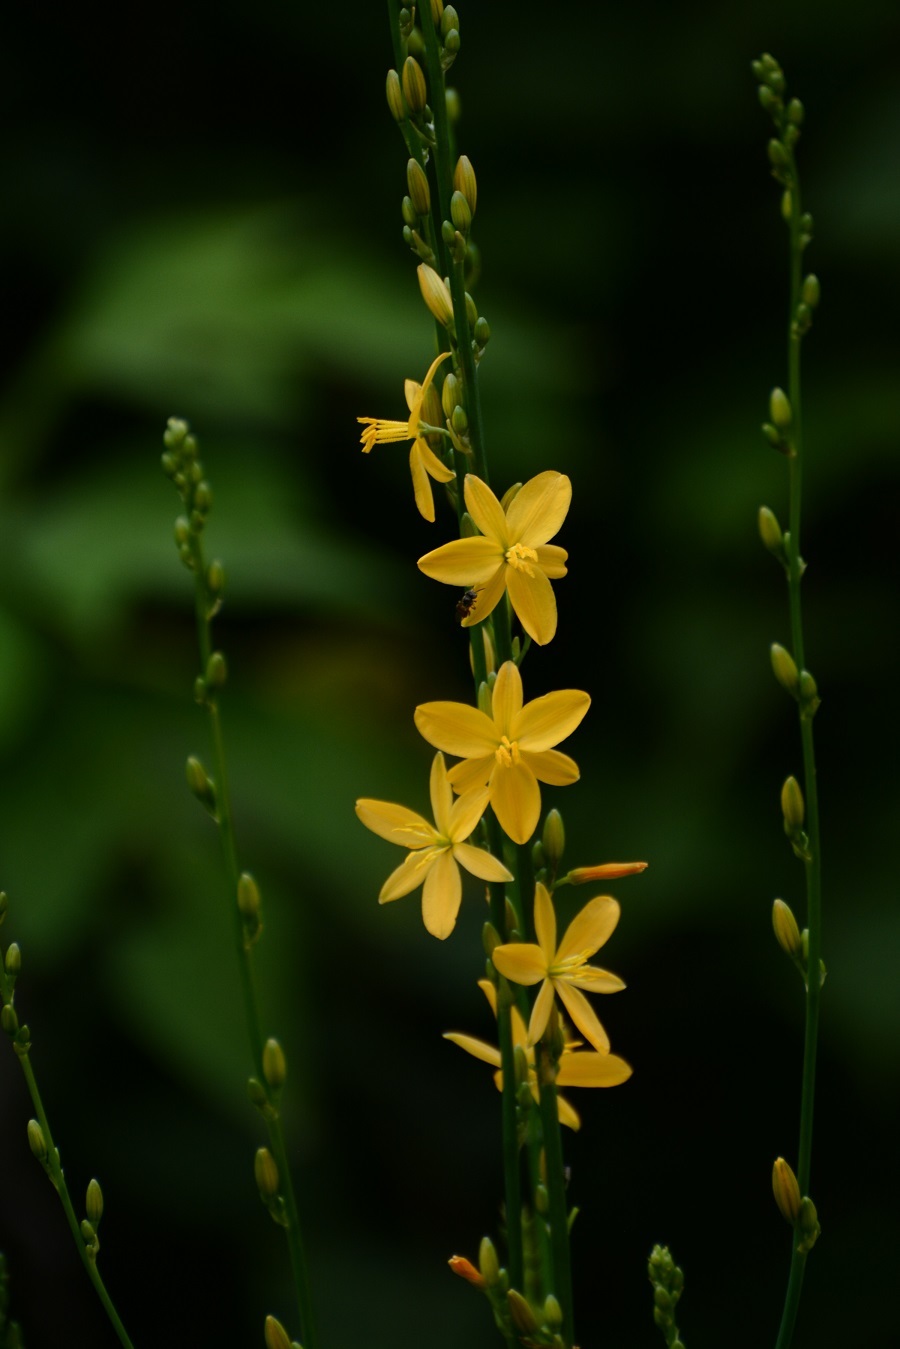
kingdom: Plantae
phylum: Tracheophyta
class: Liliopsida
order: Asparagales
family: Asparagaceae
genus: Echeandia
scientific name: Echeandia breedlovei
